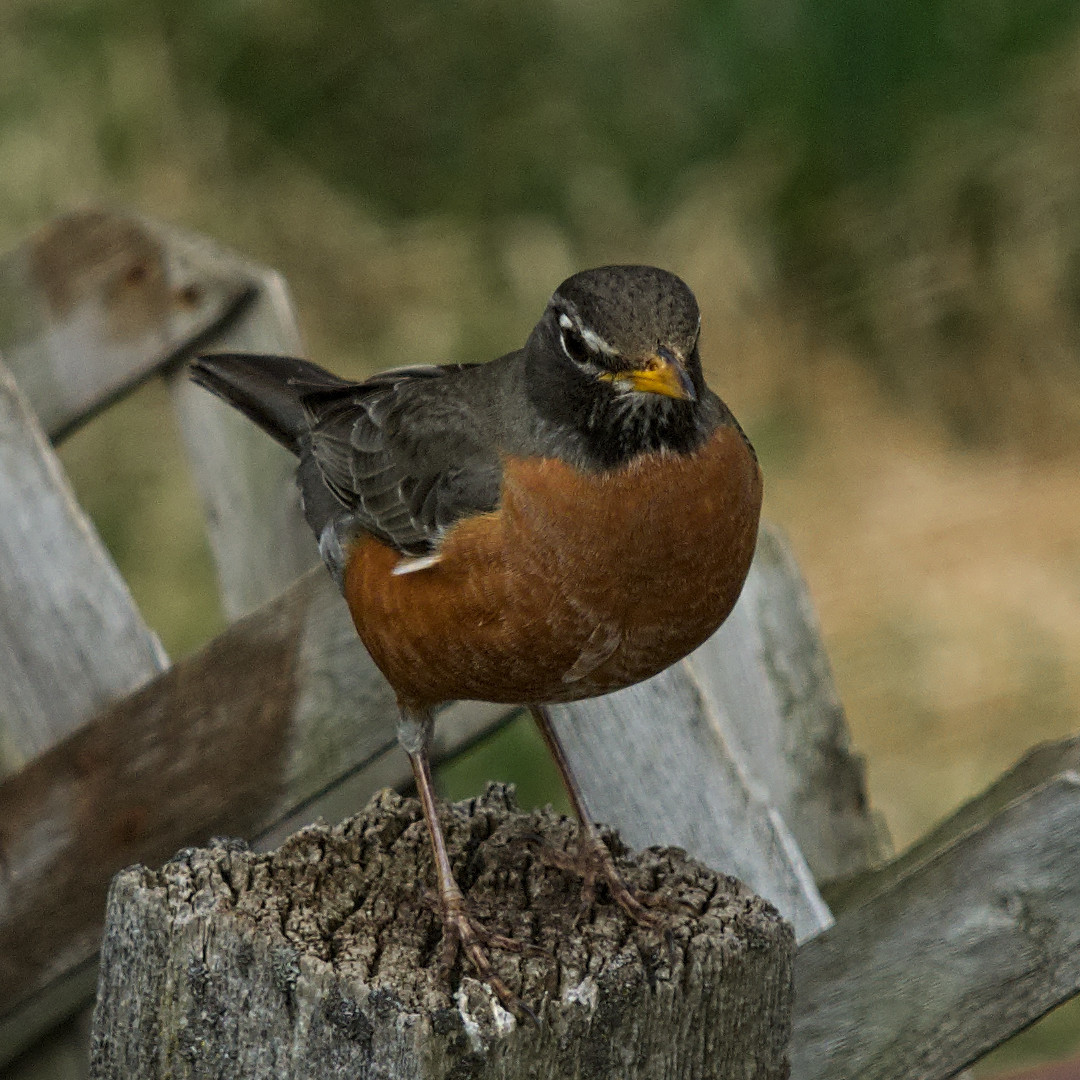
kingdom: Animalia
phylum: Chordata
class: Aves
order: Passeriformes
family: Turdidae
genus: Turdus
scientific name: Turdus migratorius
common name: American robin
